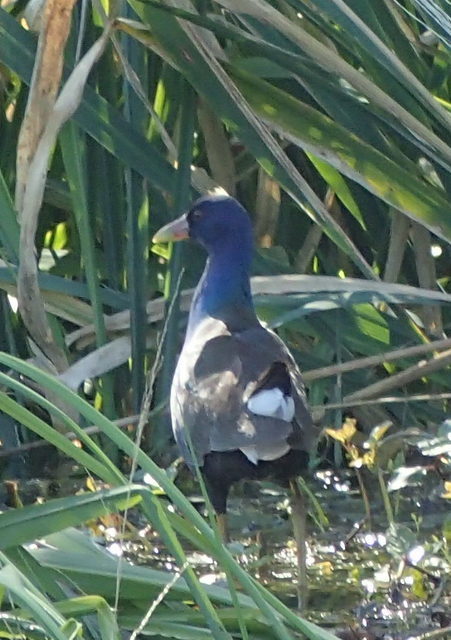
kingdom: Animalia
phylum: Chordata
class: Aves
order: Gruiformes
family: Rallidae
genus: Porphyrio
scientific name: Porphyrio martinica
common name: Purple gallinule
